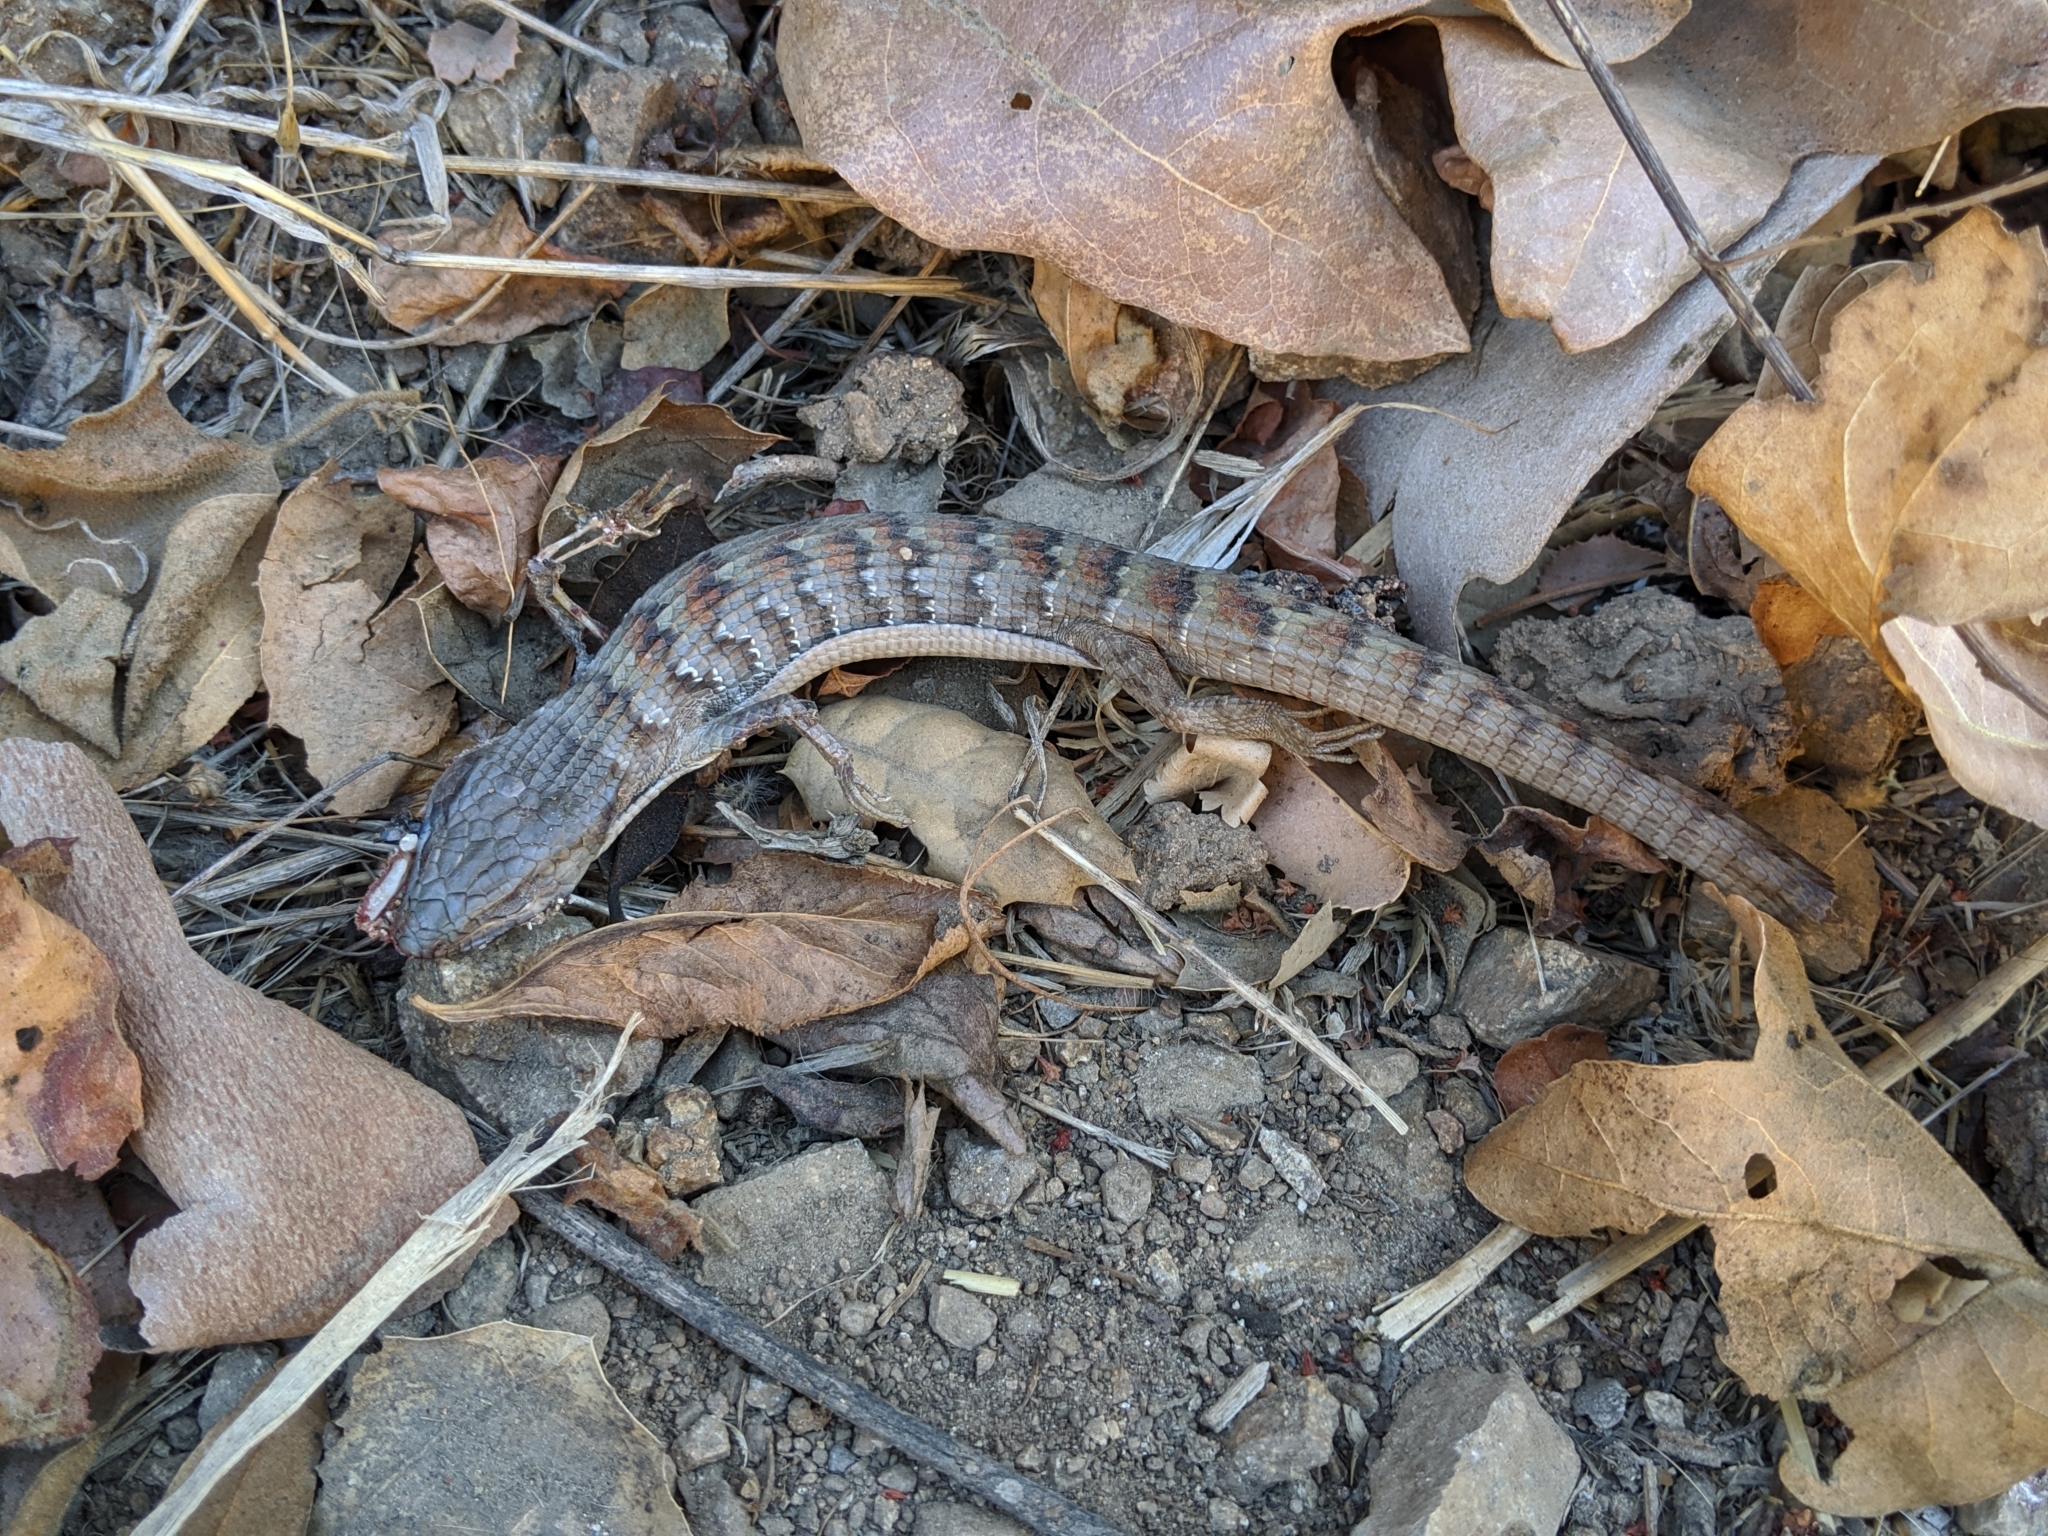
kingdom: Animalia
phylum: Chordata
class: Squamata
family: Anguidae
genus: Elgaria
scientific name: Elgaria multicarinata
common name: Southern alligator lizard
